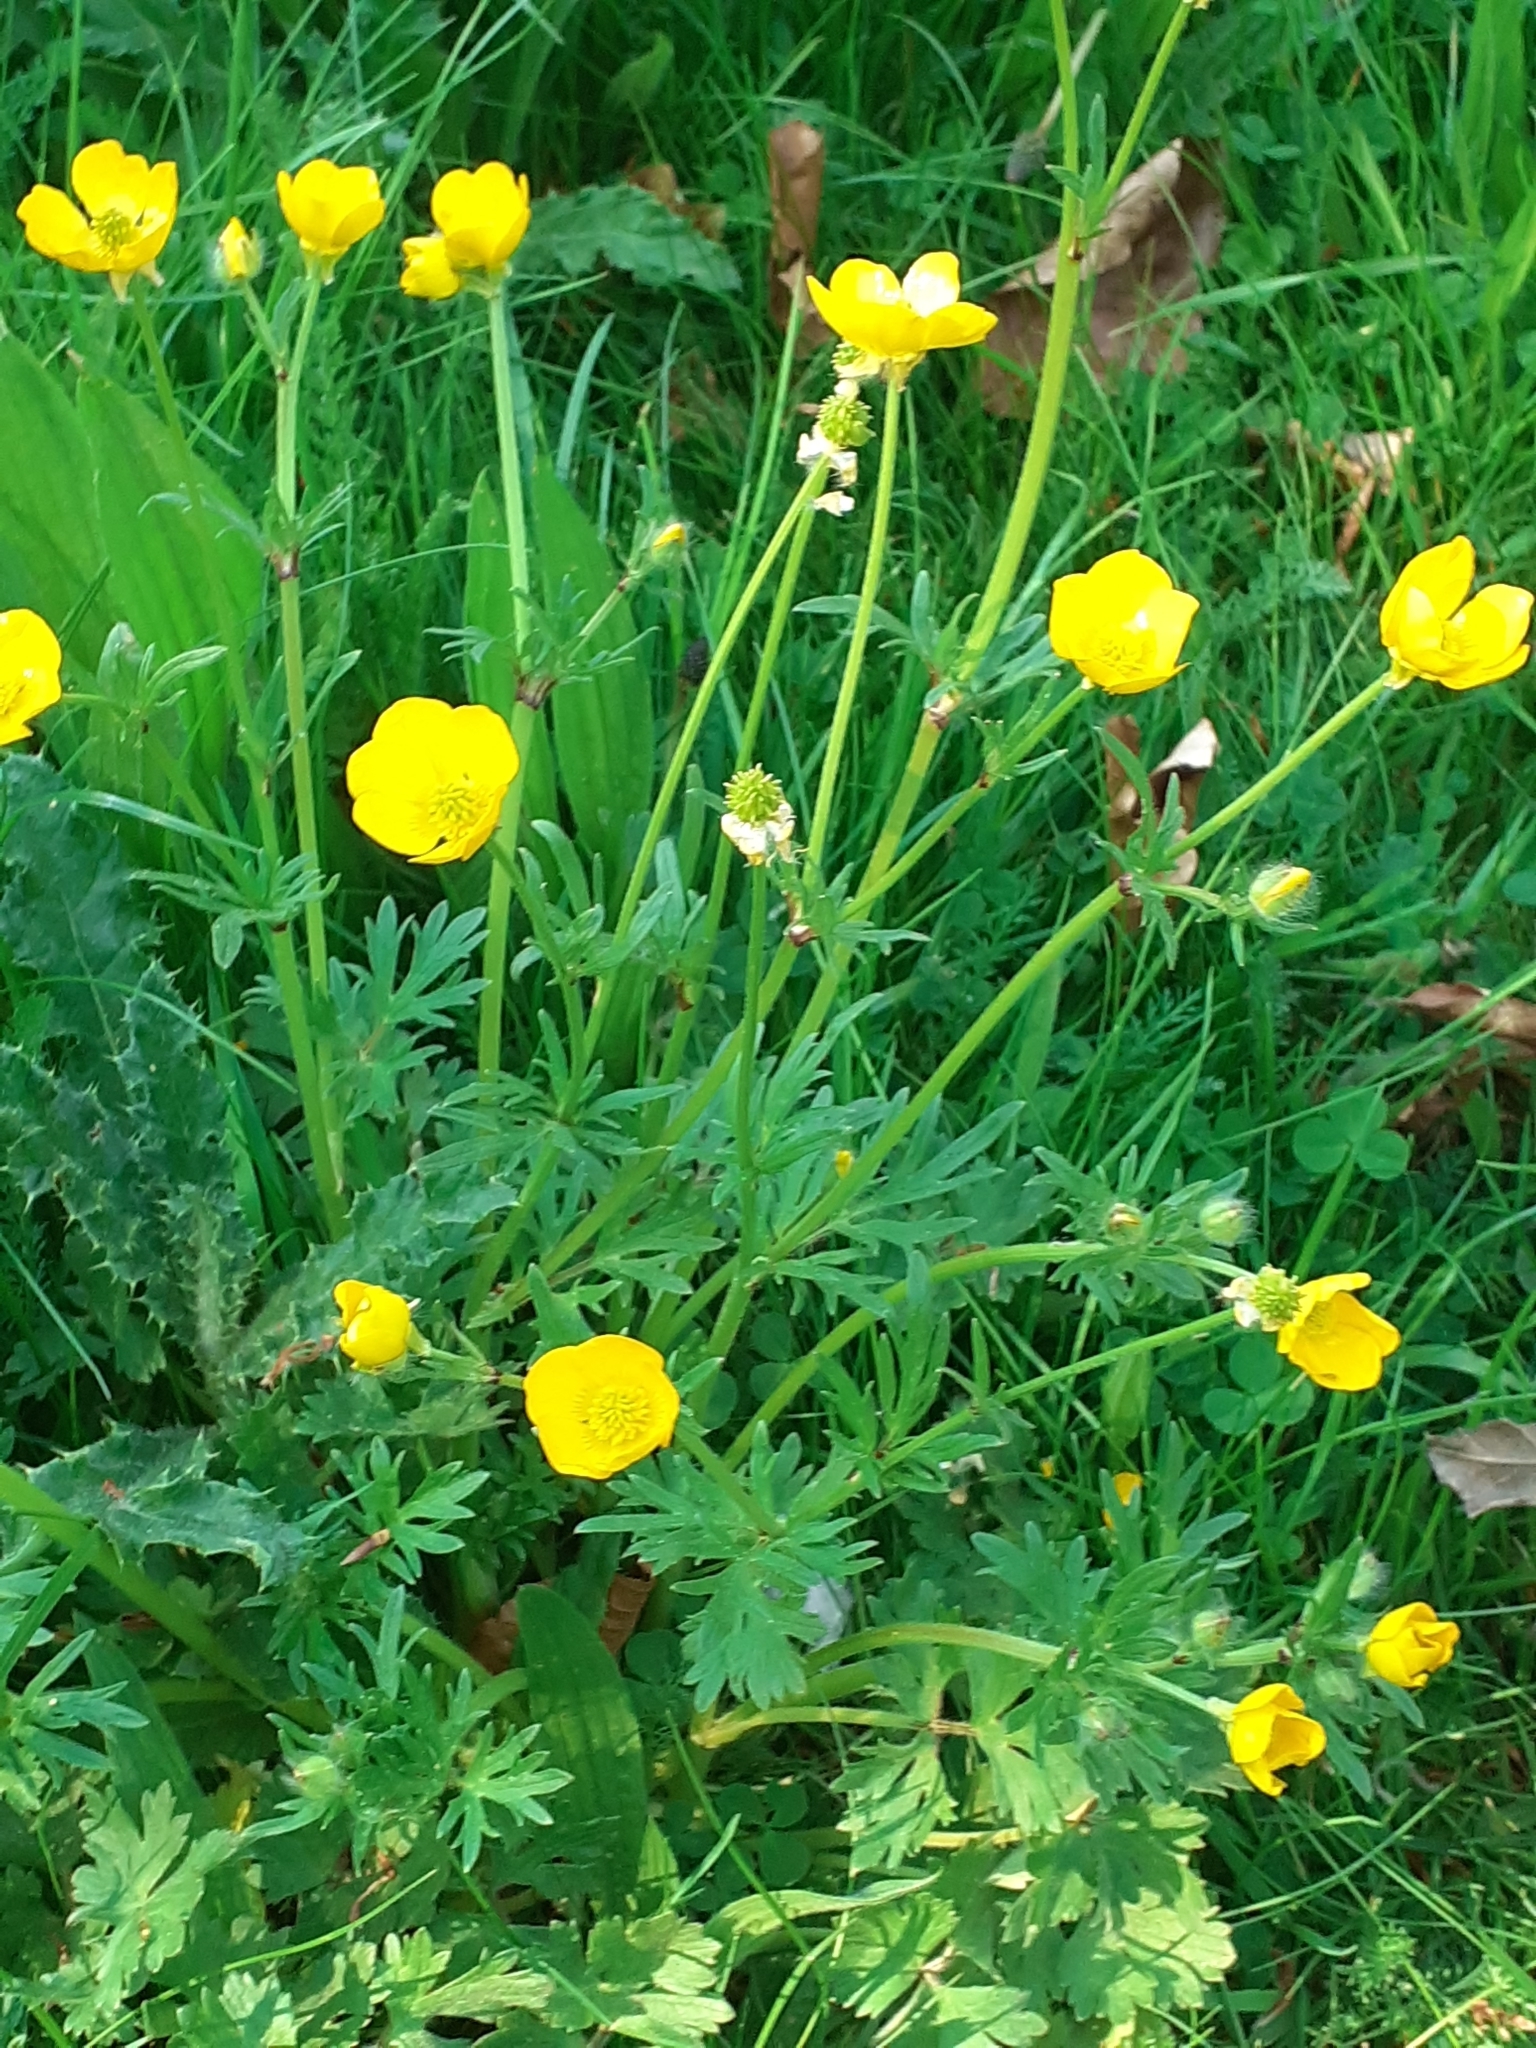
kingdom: Plantae
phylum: Tracheophyta
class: Magnoliopsida
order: Ranunculales
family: Ranunculaceae
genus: Ranunculus
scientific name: Ranunculus bulbosus
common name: Bulbous buttercup
